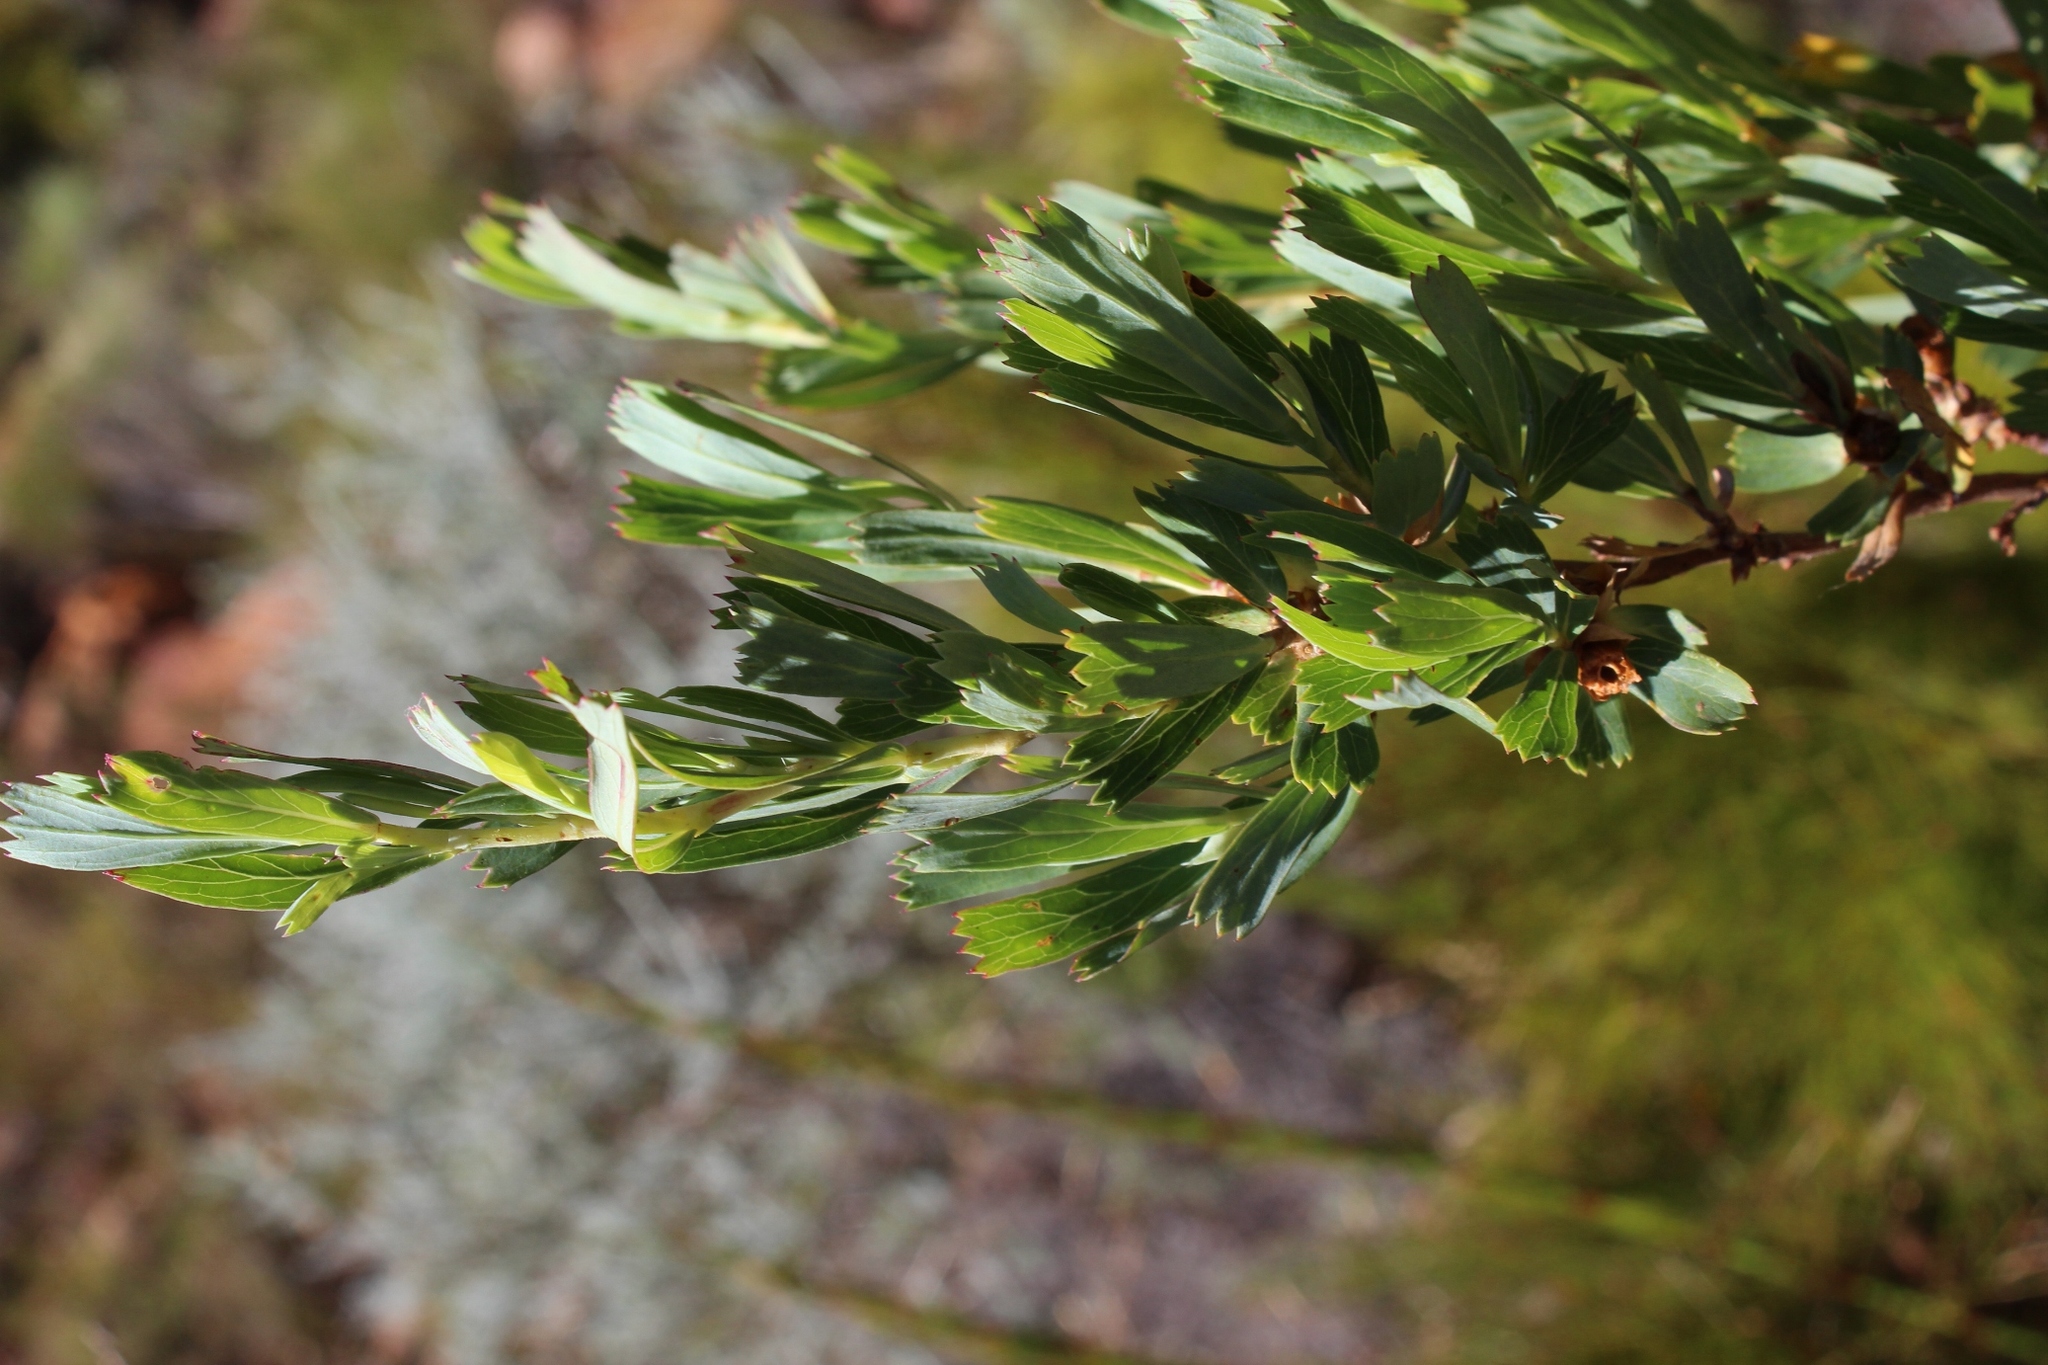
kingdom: Plantae
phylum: Tracheophyta
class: Magnoliopsida
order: Rosales
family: Rosaceae
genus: Cliffortia
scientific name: Cliffortia cuneata
